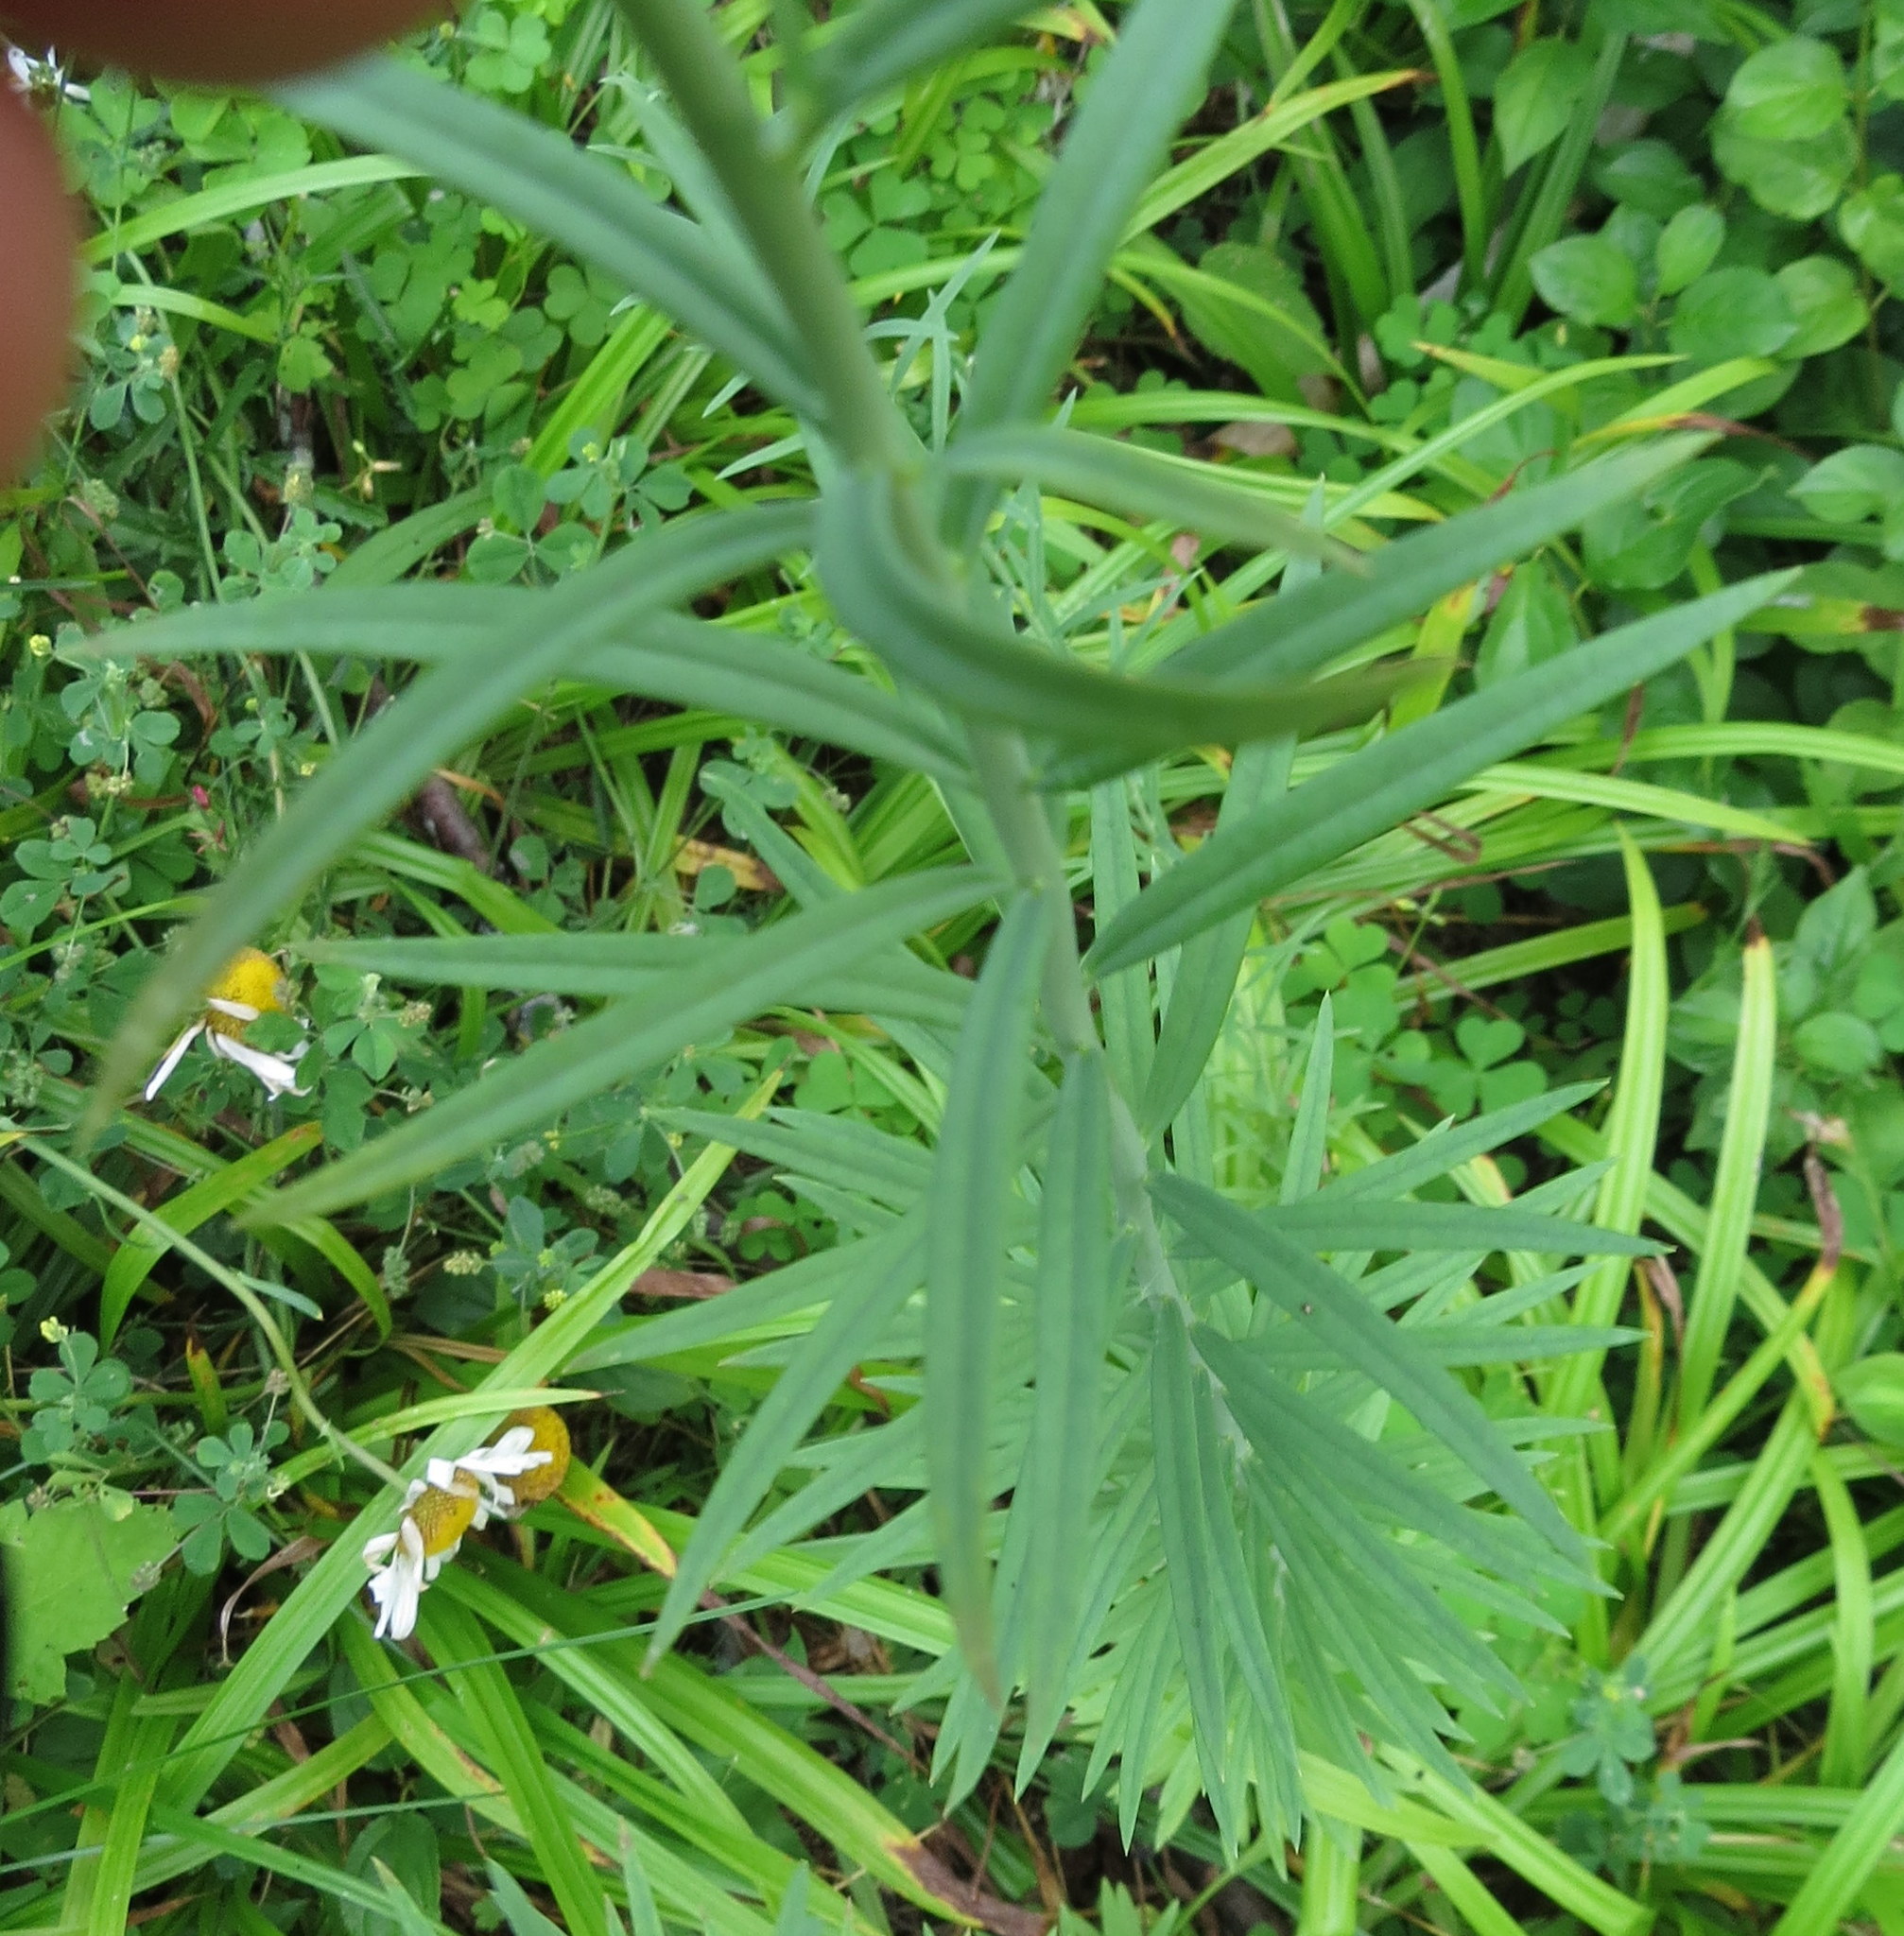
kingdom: Plantae
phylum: Tracheophyta
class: Magnoliopsida
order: Lamiales
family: Plantaginaceae
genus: Linaria
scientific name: Linaria vulgaris
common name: Butter and eggs
